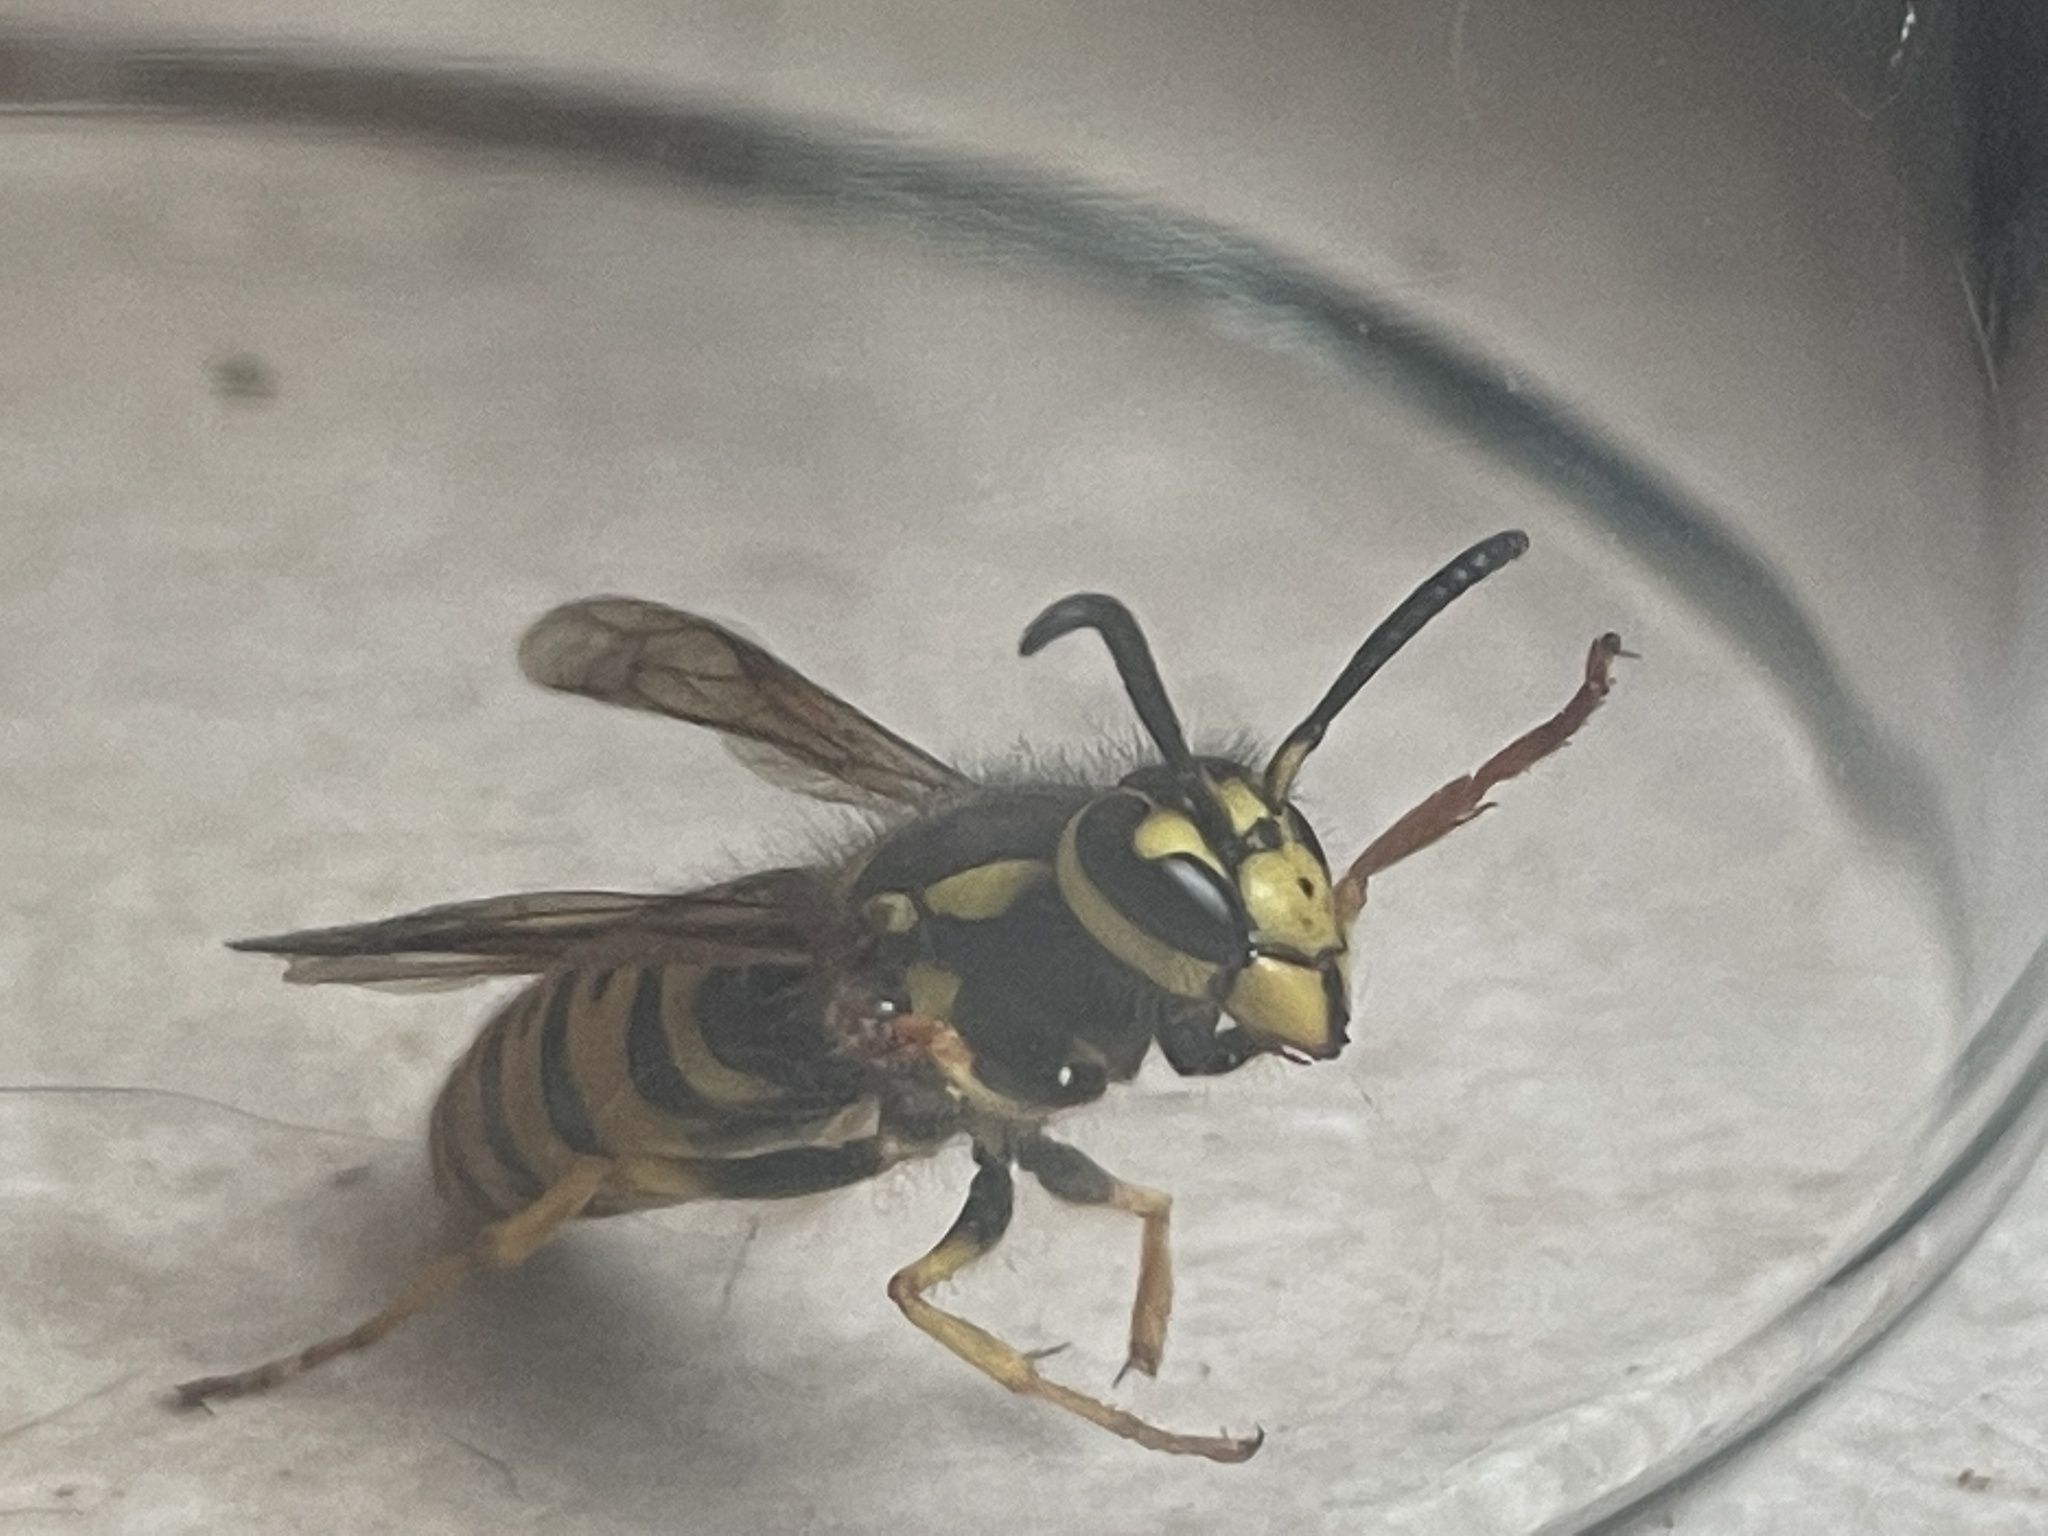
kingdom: Animalia
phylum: Arthropoda
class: Insecta
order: Hymenoptera
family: Vespidae
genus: Vespula
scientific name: Vespula pensylvanica
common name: Western yellowjacket
